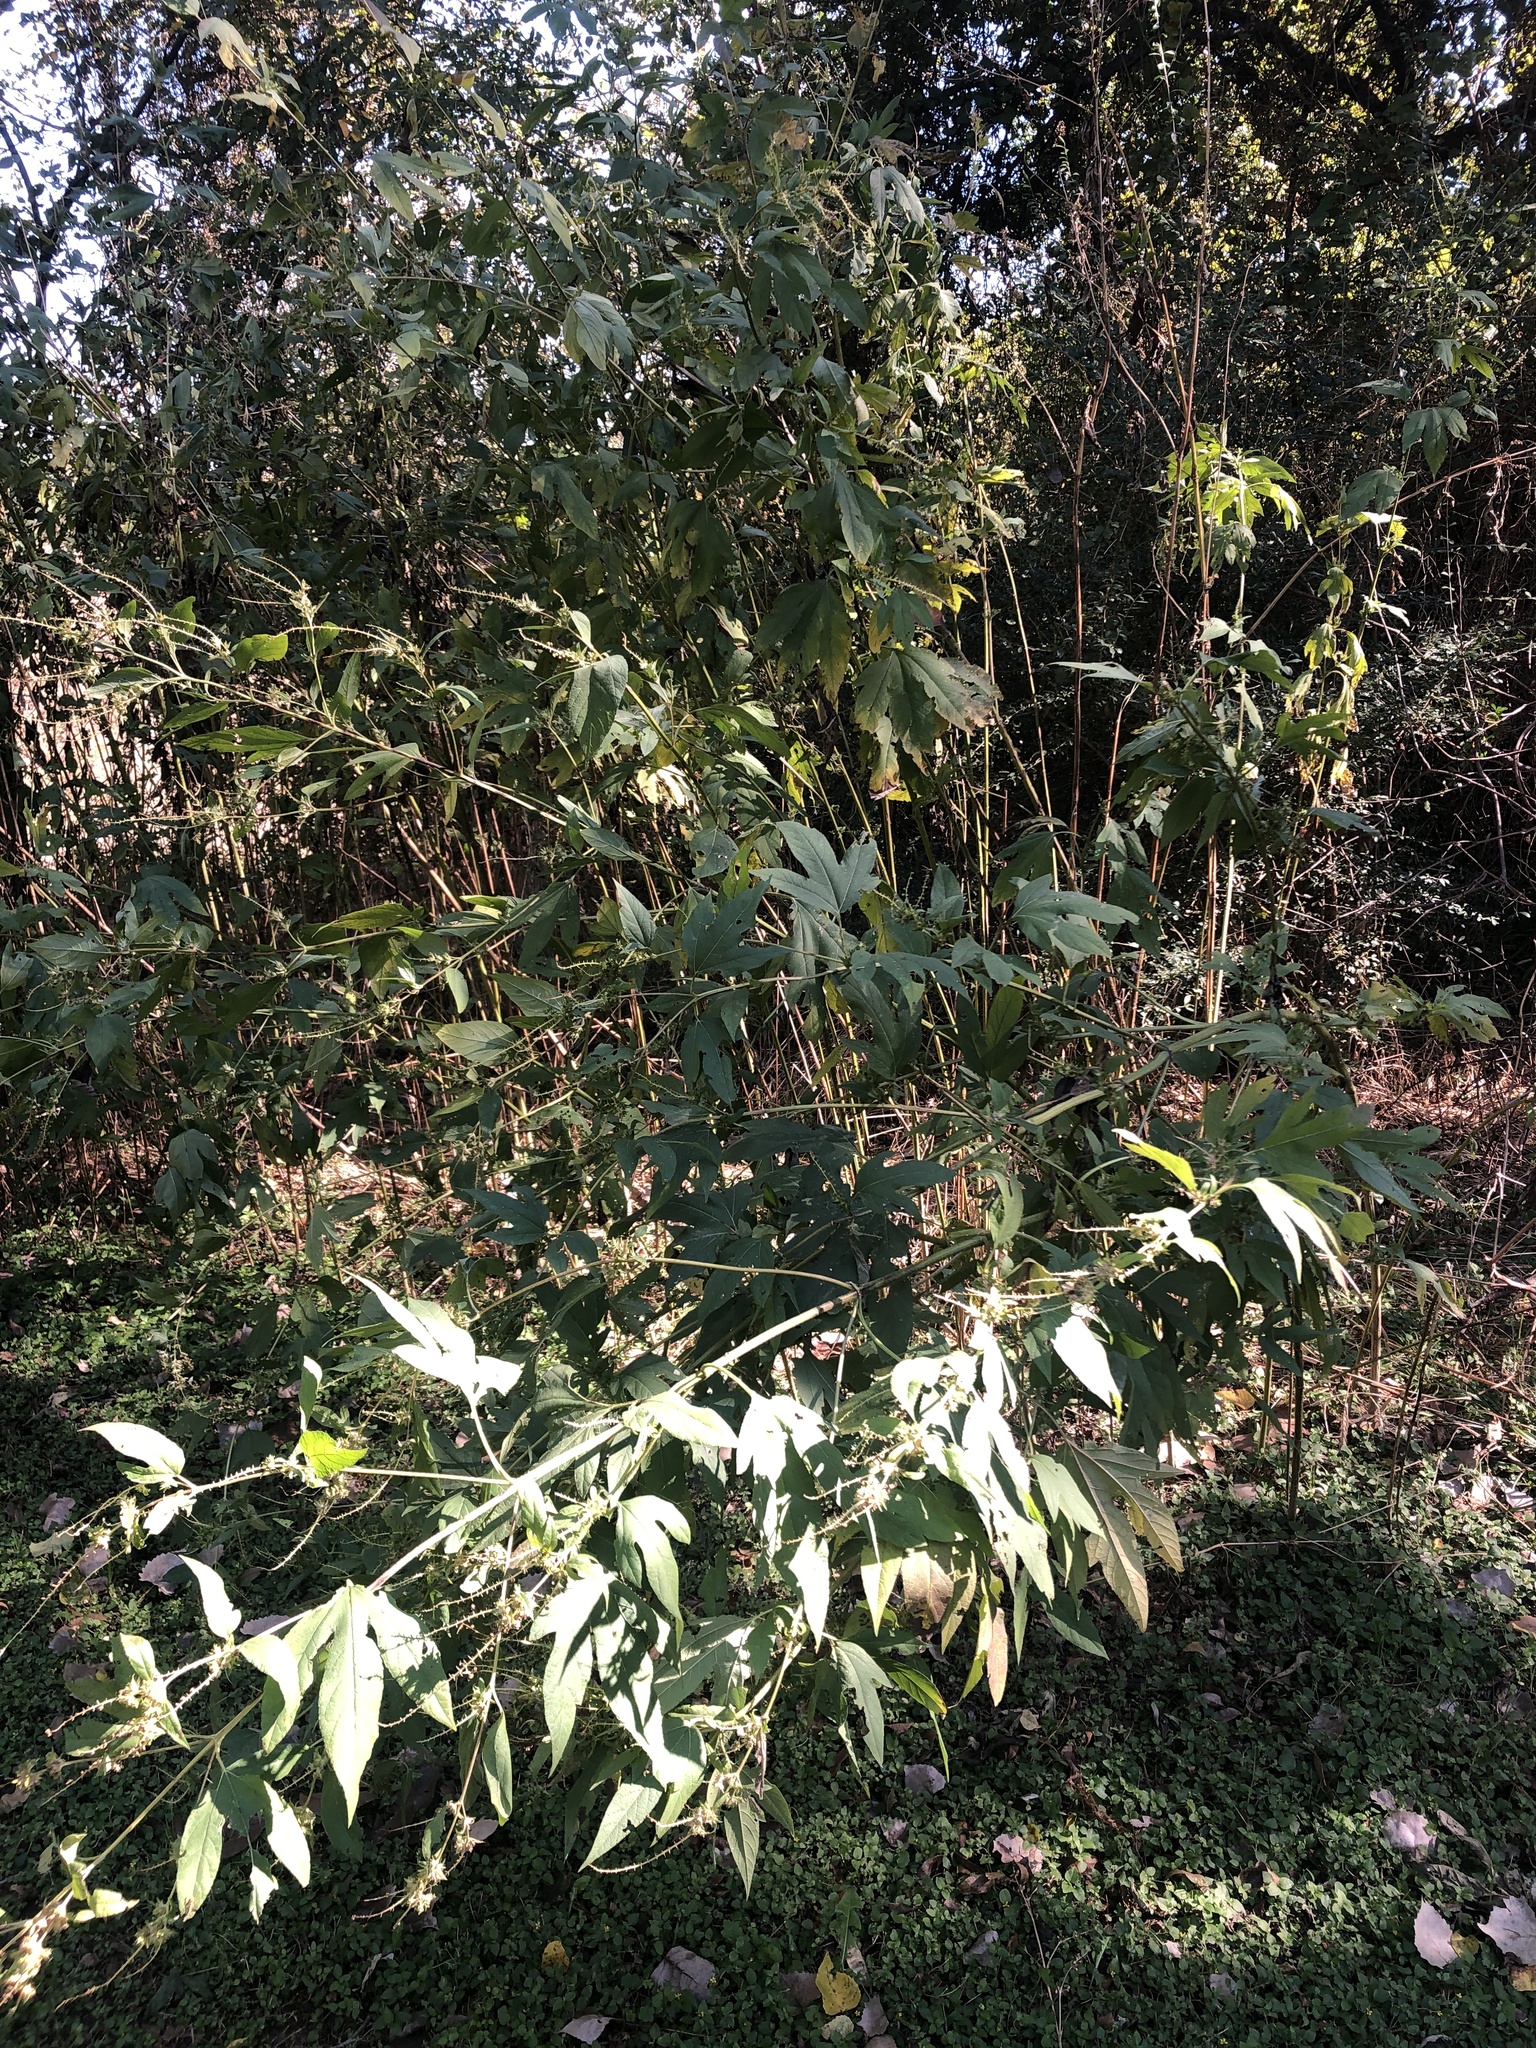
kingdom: Plantae
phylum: Tracheophyta
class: Magnoliopsida
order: Asterales
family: Asteraceae
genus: Ambrosia
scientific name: Ambrosia trifida
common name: Giant ragweed
